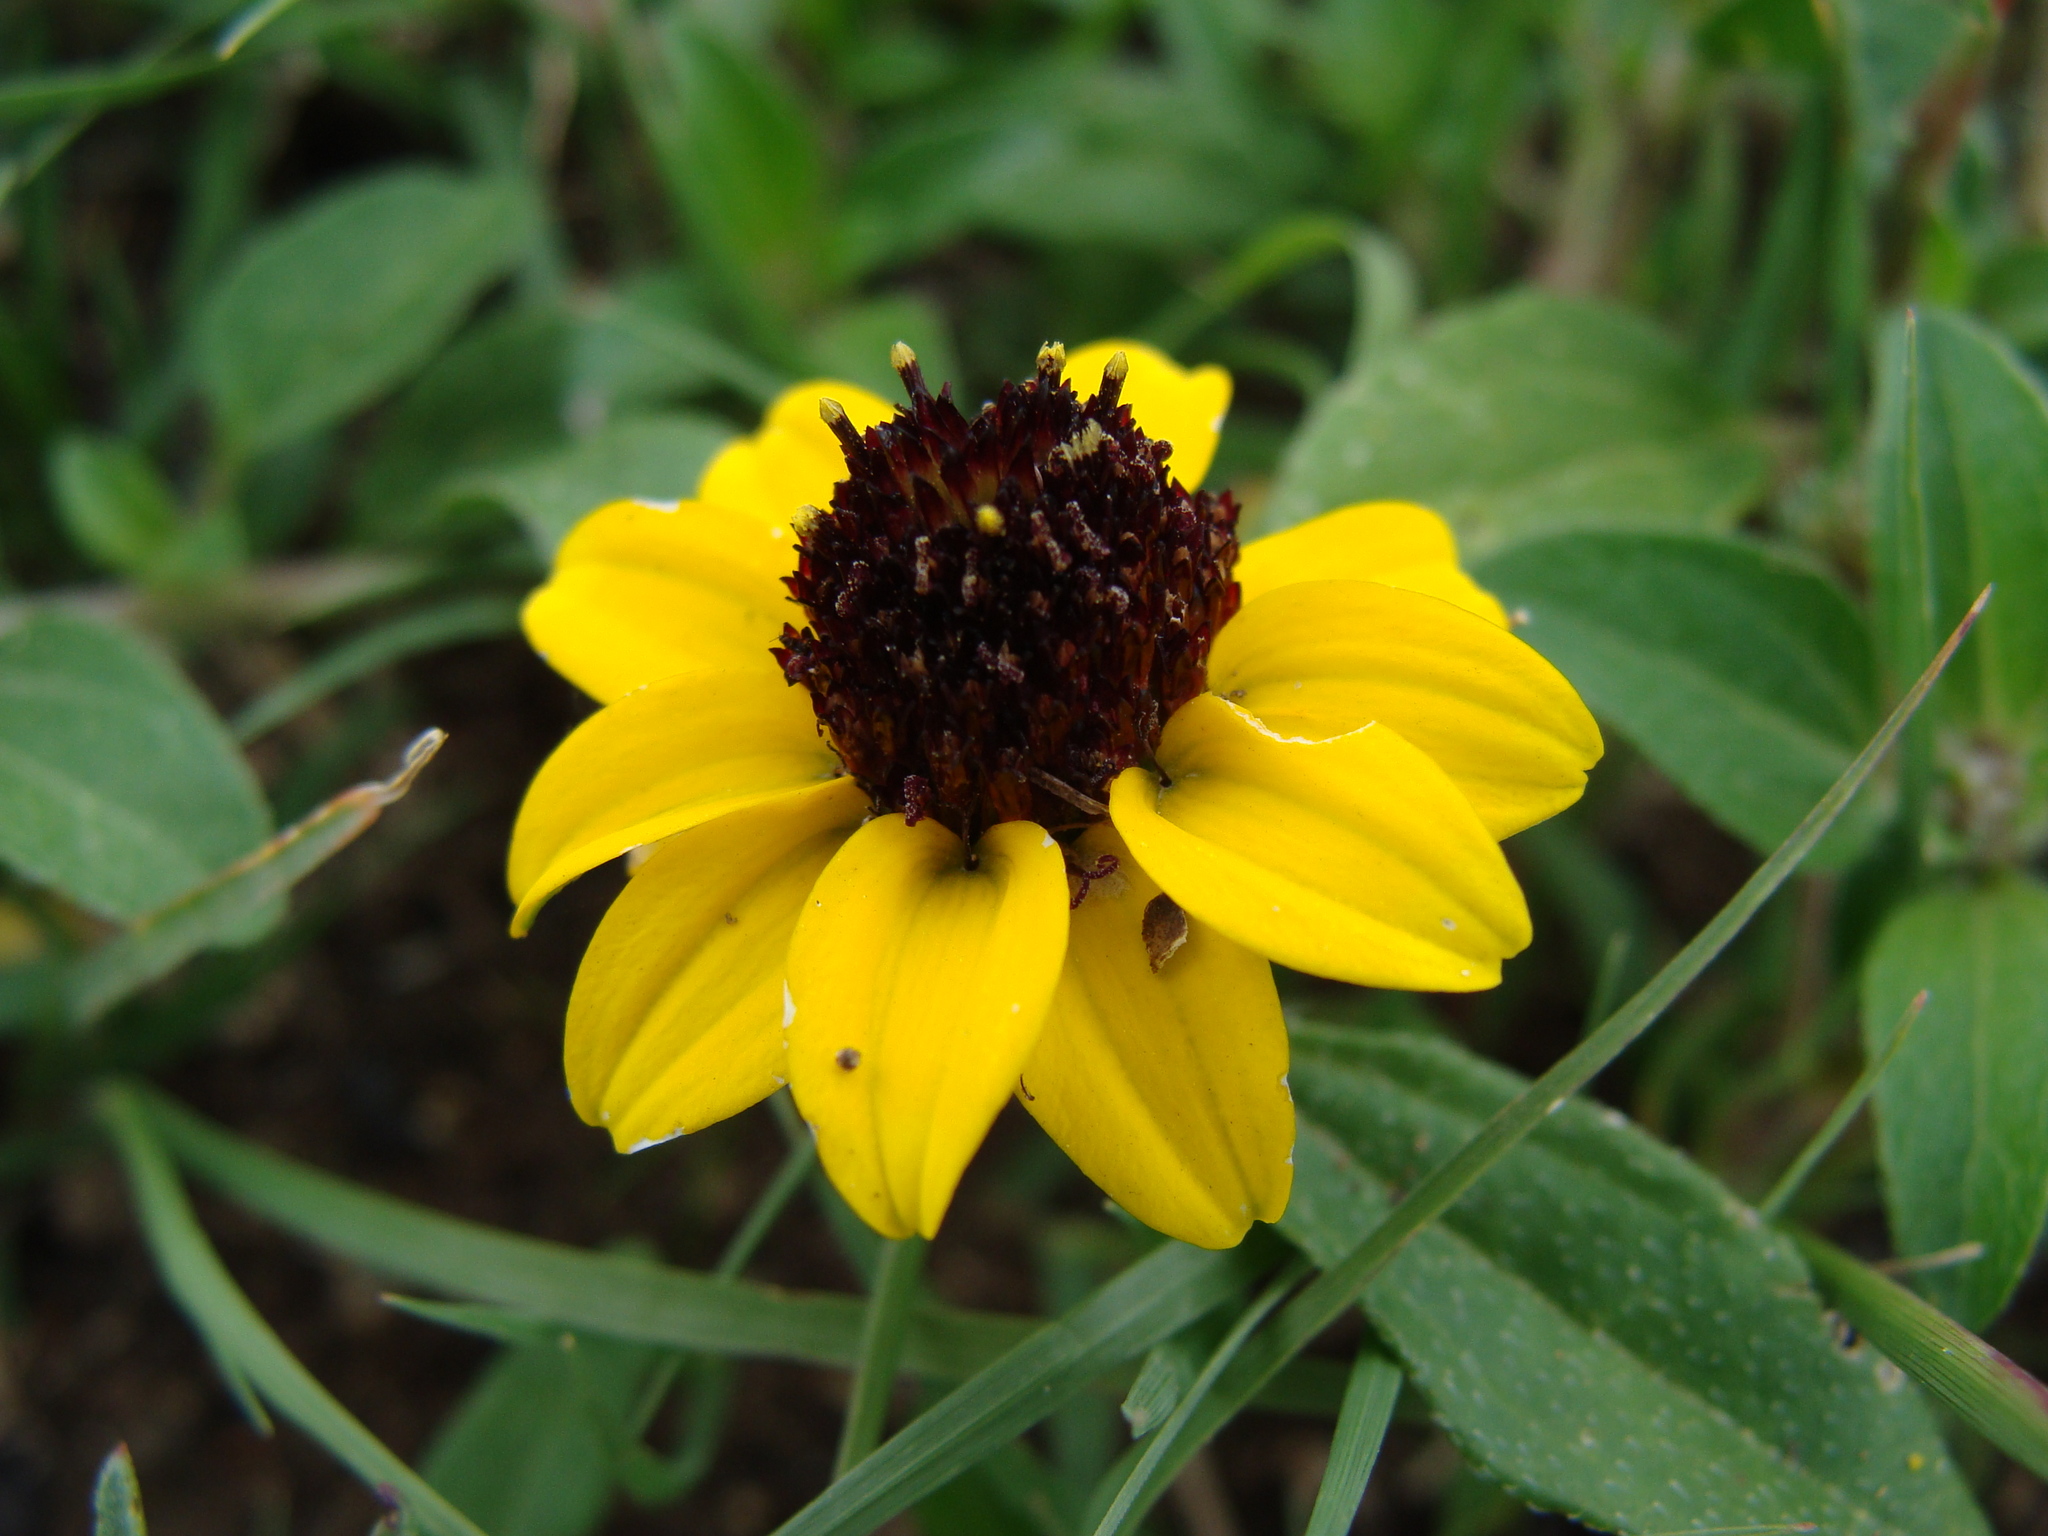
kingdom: Plantae
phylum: Tracheophyta
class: Magnoliopsida
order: Asterales
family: Asteraceae
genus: Sanvitalia
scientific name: Sanvitalia procumbens
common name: Mexican creeping zinnia
